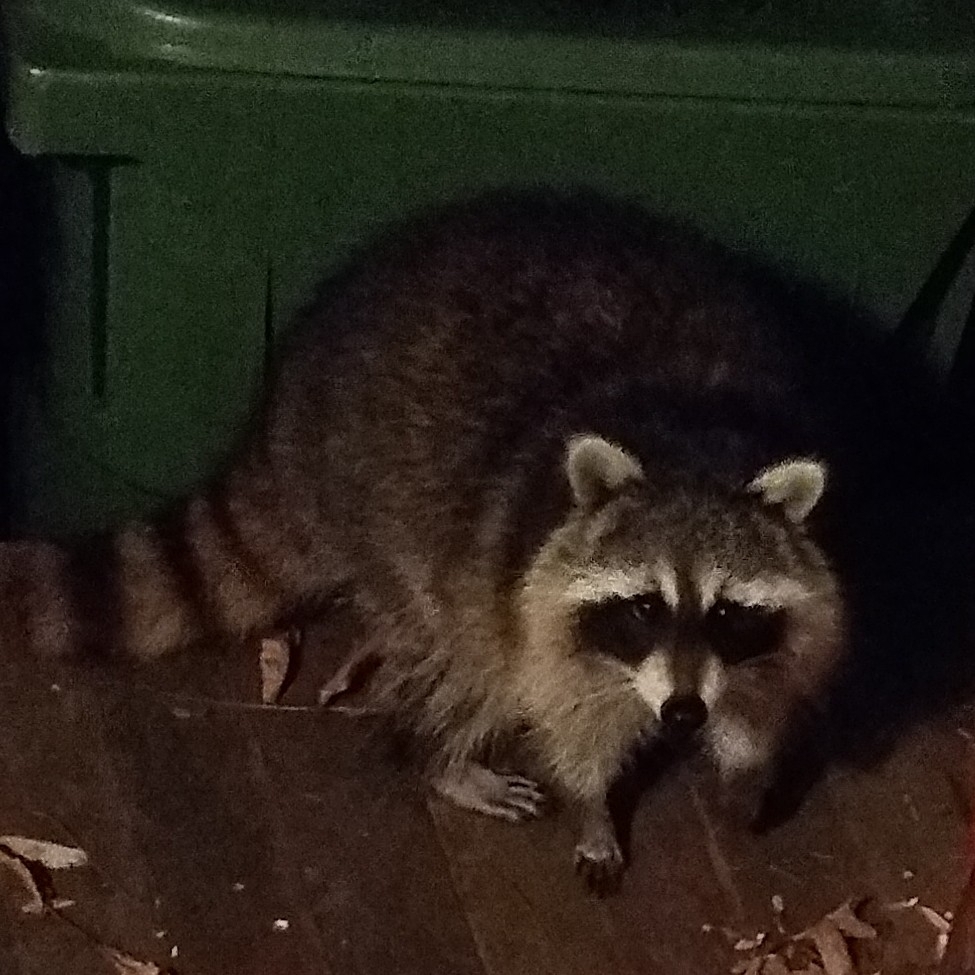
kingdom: Animalia
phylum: Chordata
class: Mammalia
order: Carnivora
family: Procyonidae
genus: Procyon
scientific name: Procyon lotor
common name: Raccoon
